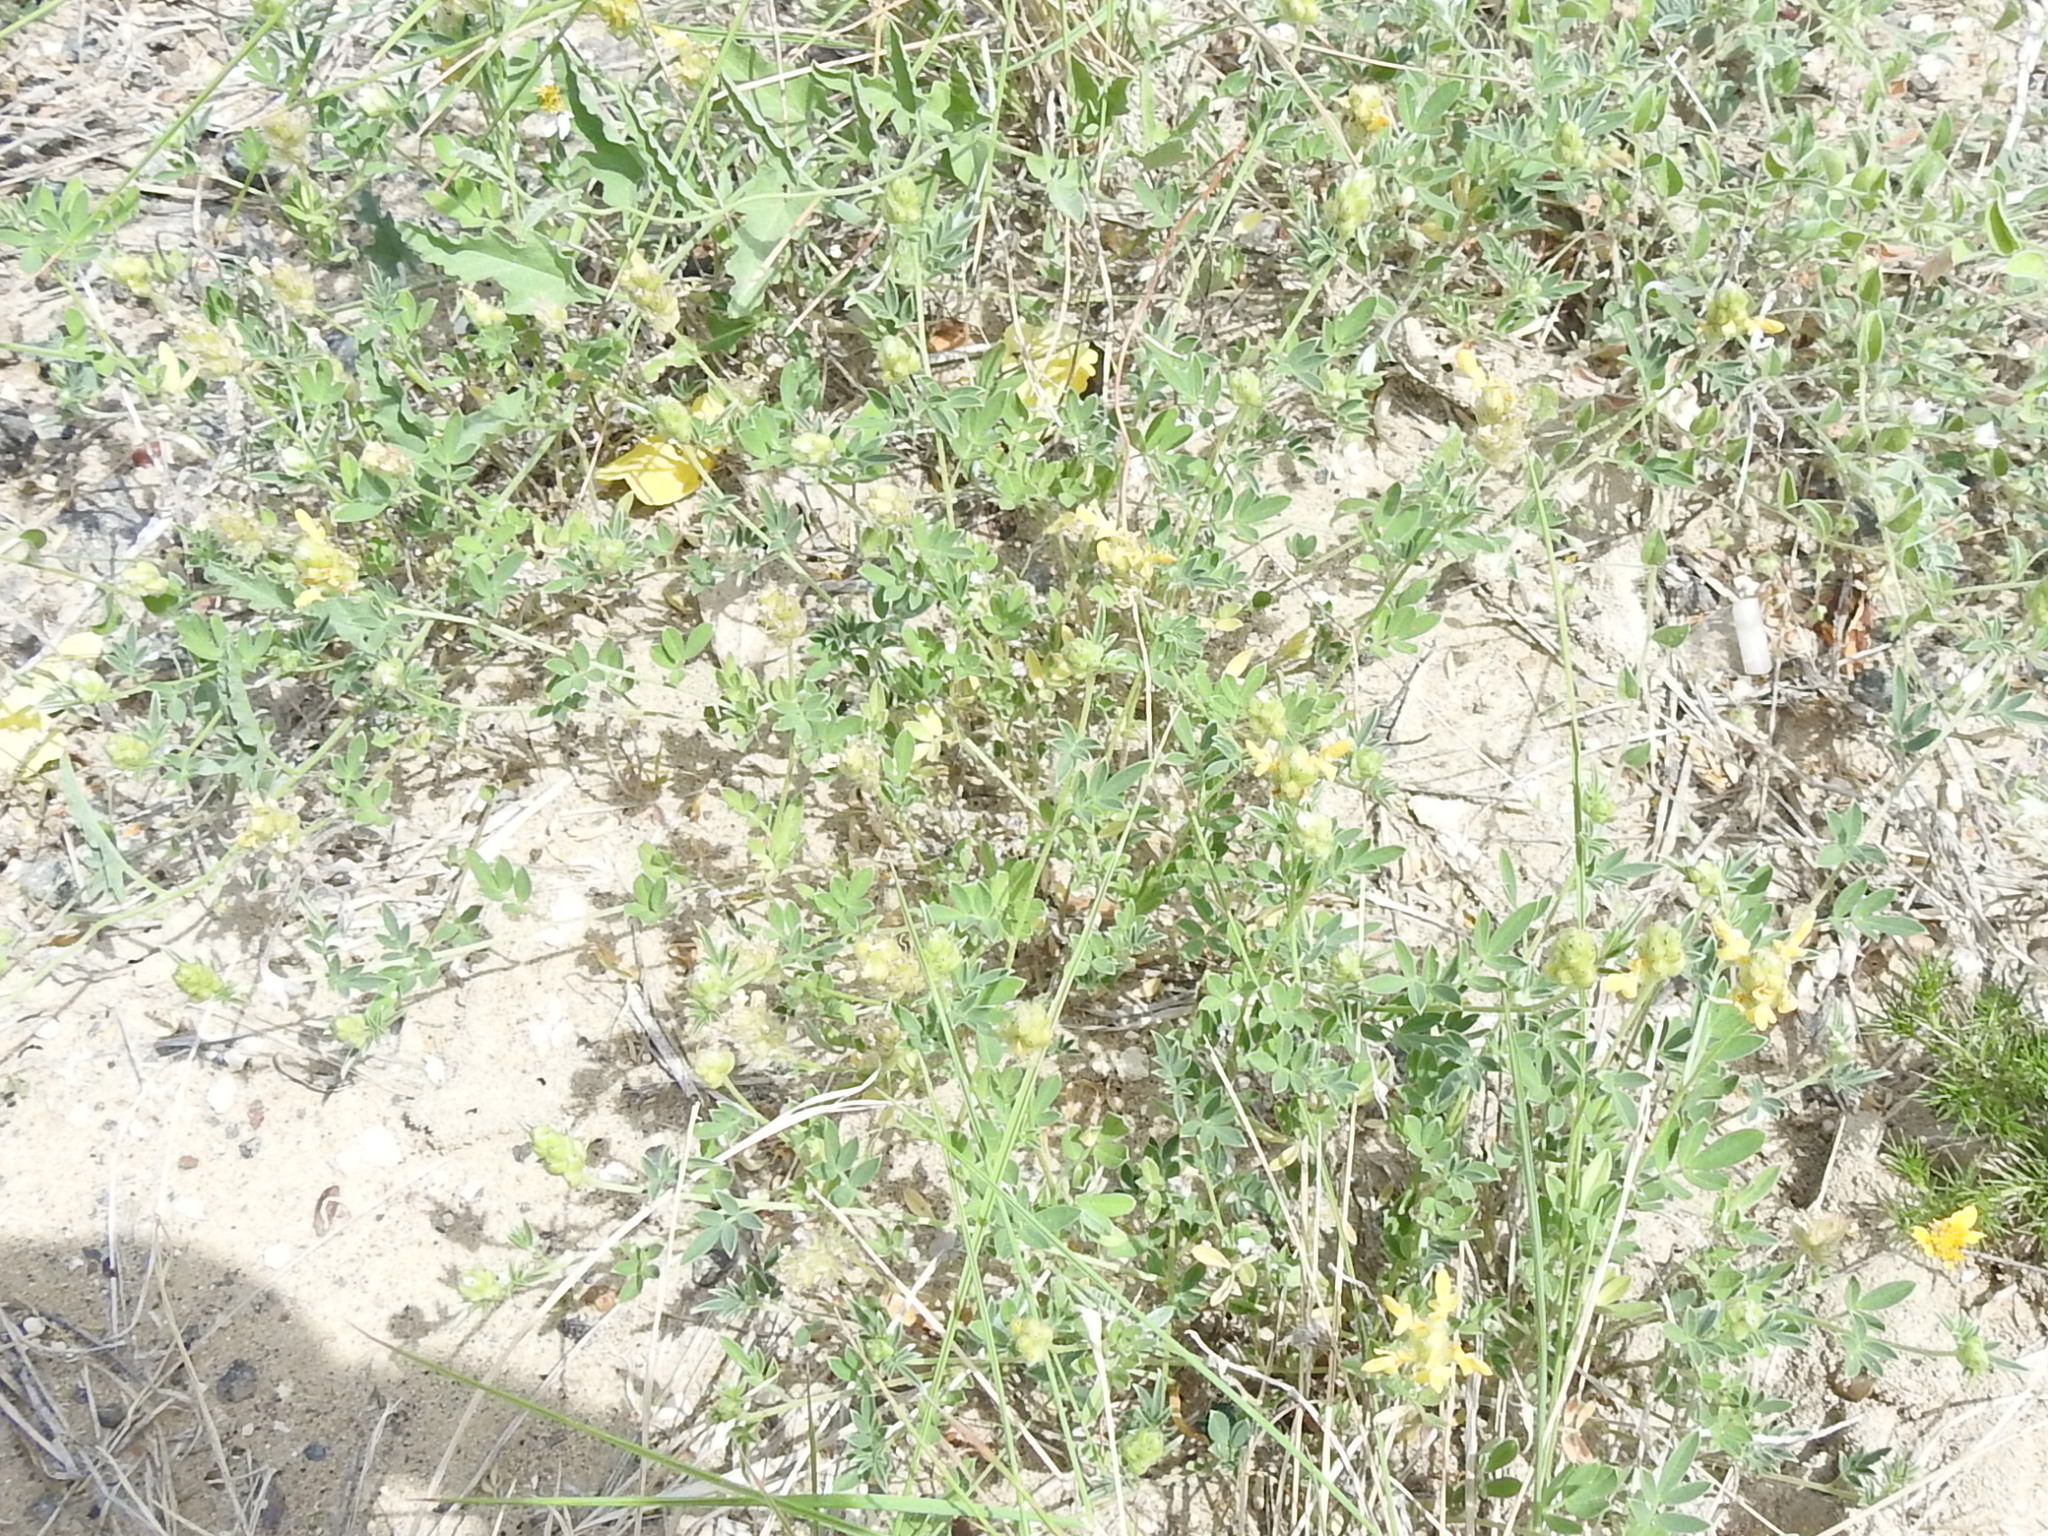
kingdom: Plantae
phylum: Tracheophyta
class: Magnoliopsida
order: Fabales
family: Fabaceae
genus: Dalea
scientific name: Dalea nana
